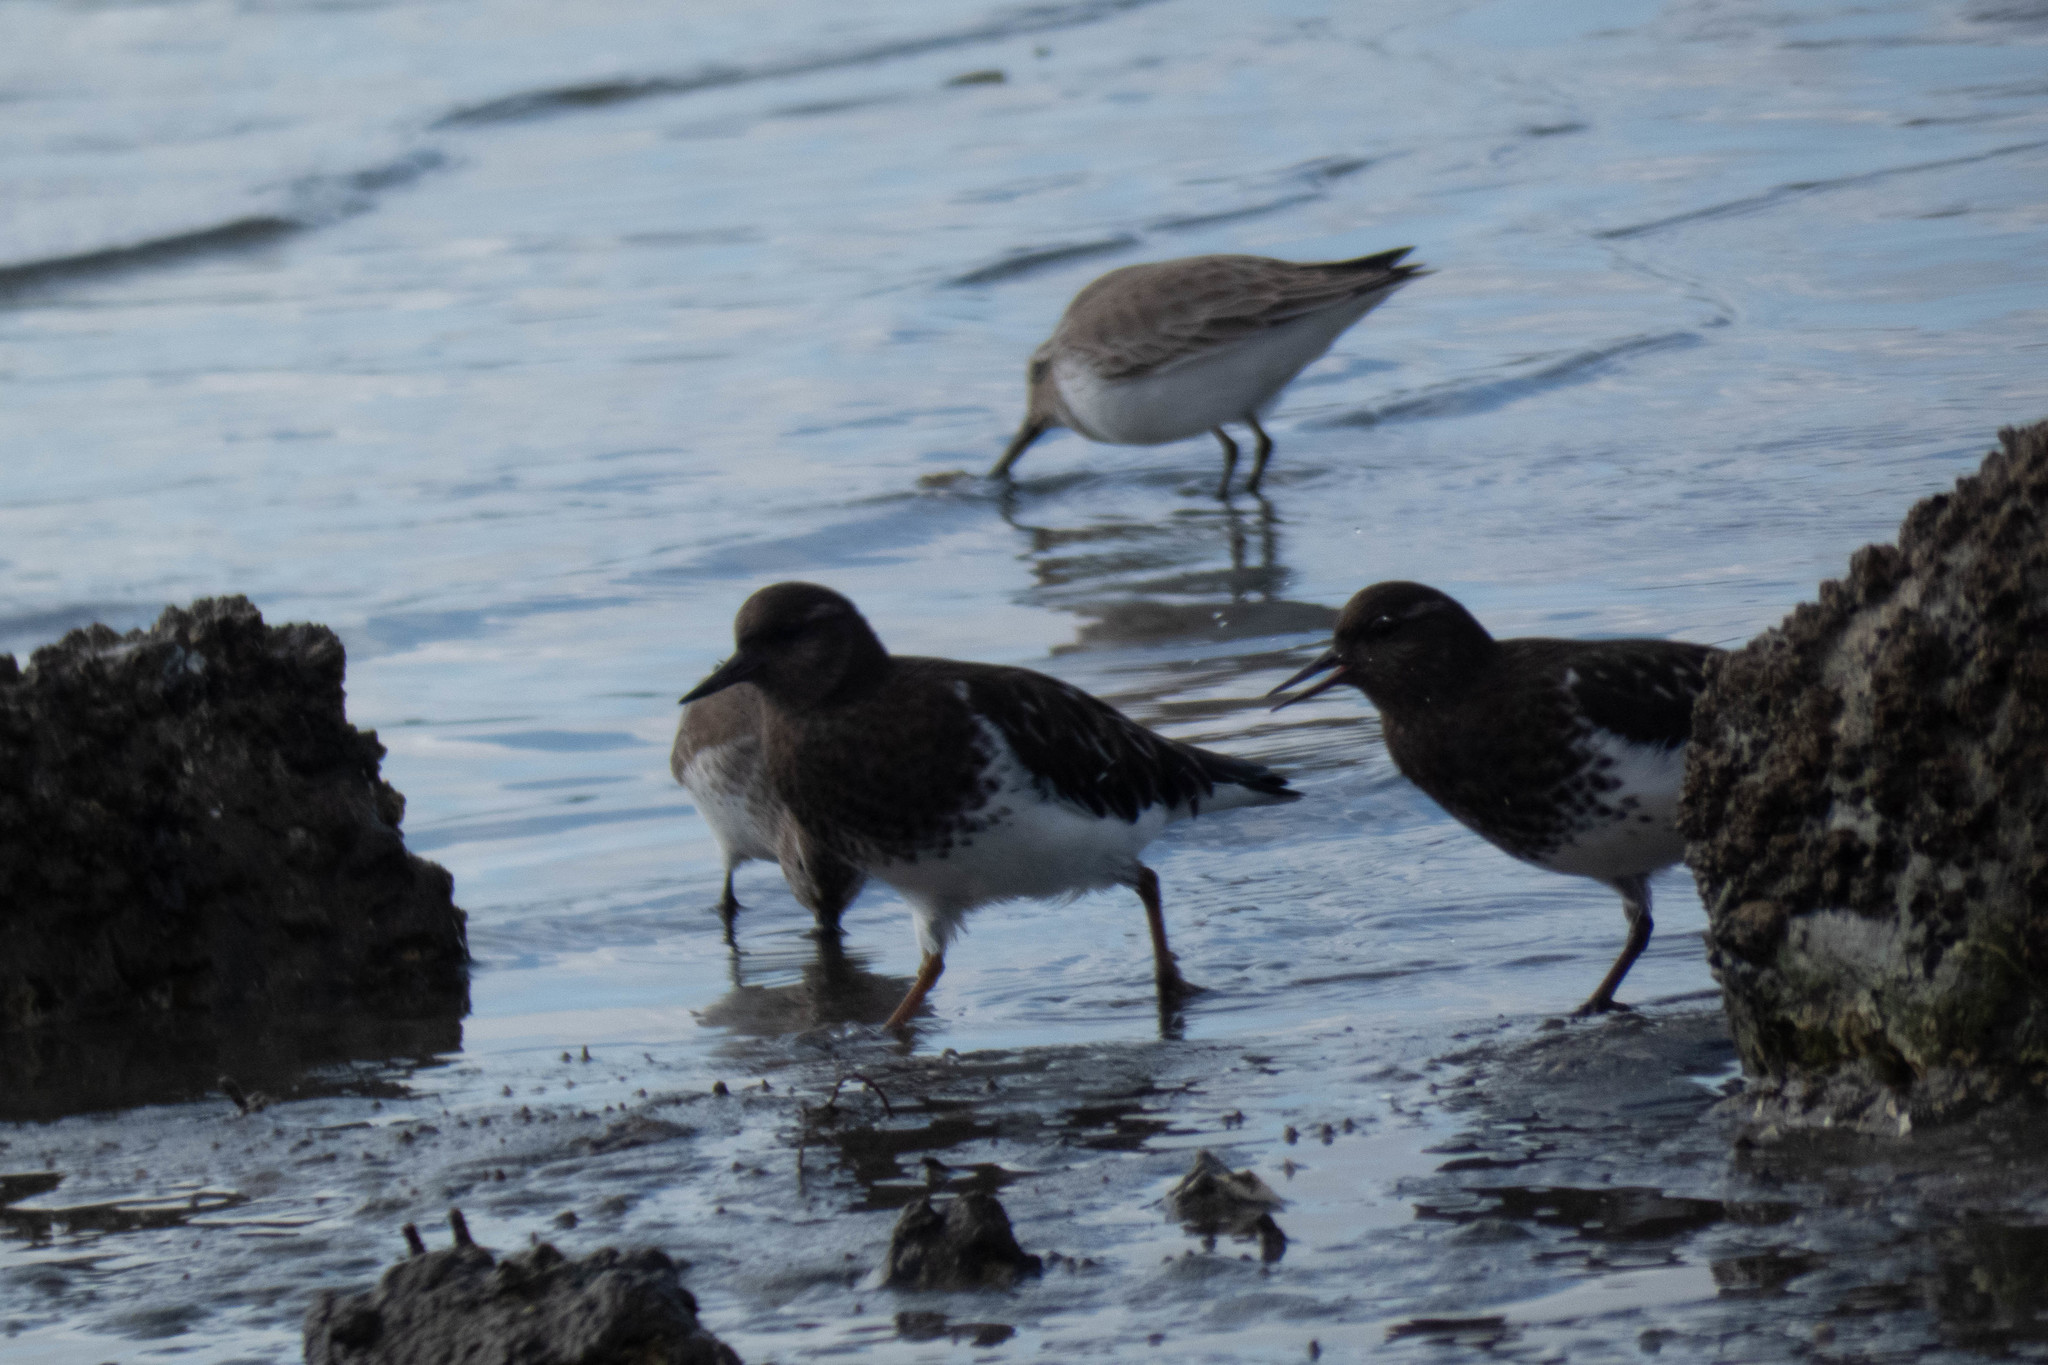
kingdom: Animalia
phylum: Chordata
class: Aves
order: Charadriiformes
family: Scolopacidae
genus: Arenaria
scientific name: Arenaria melanocephala
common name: Black turnstone
